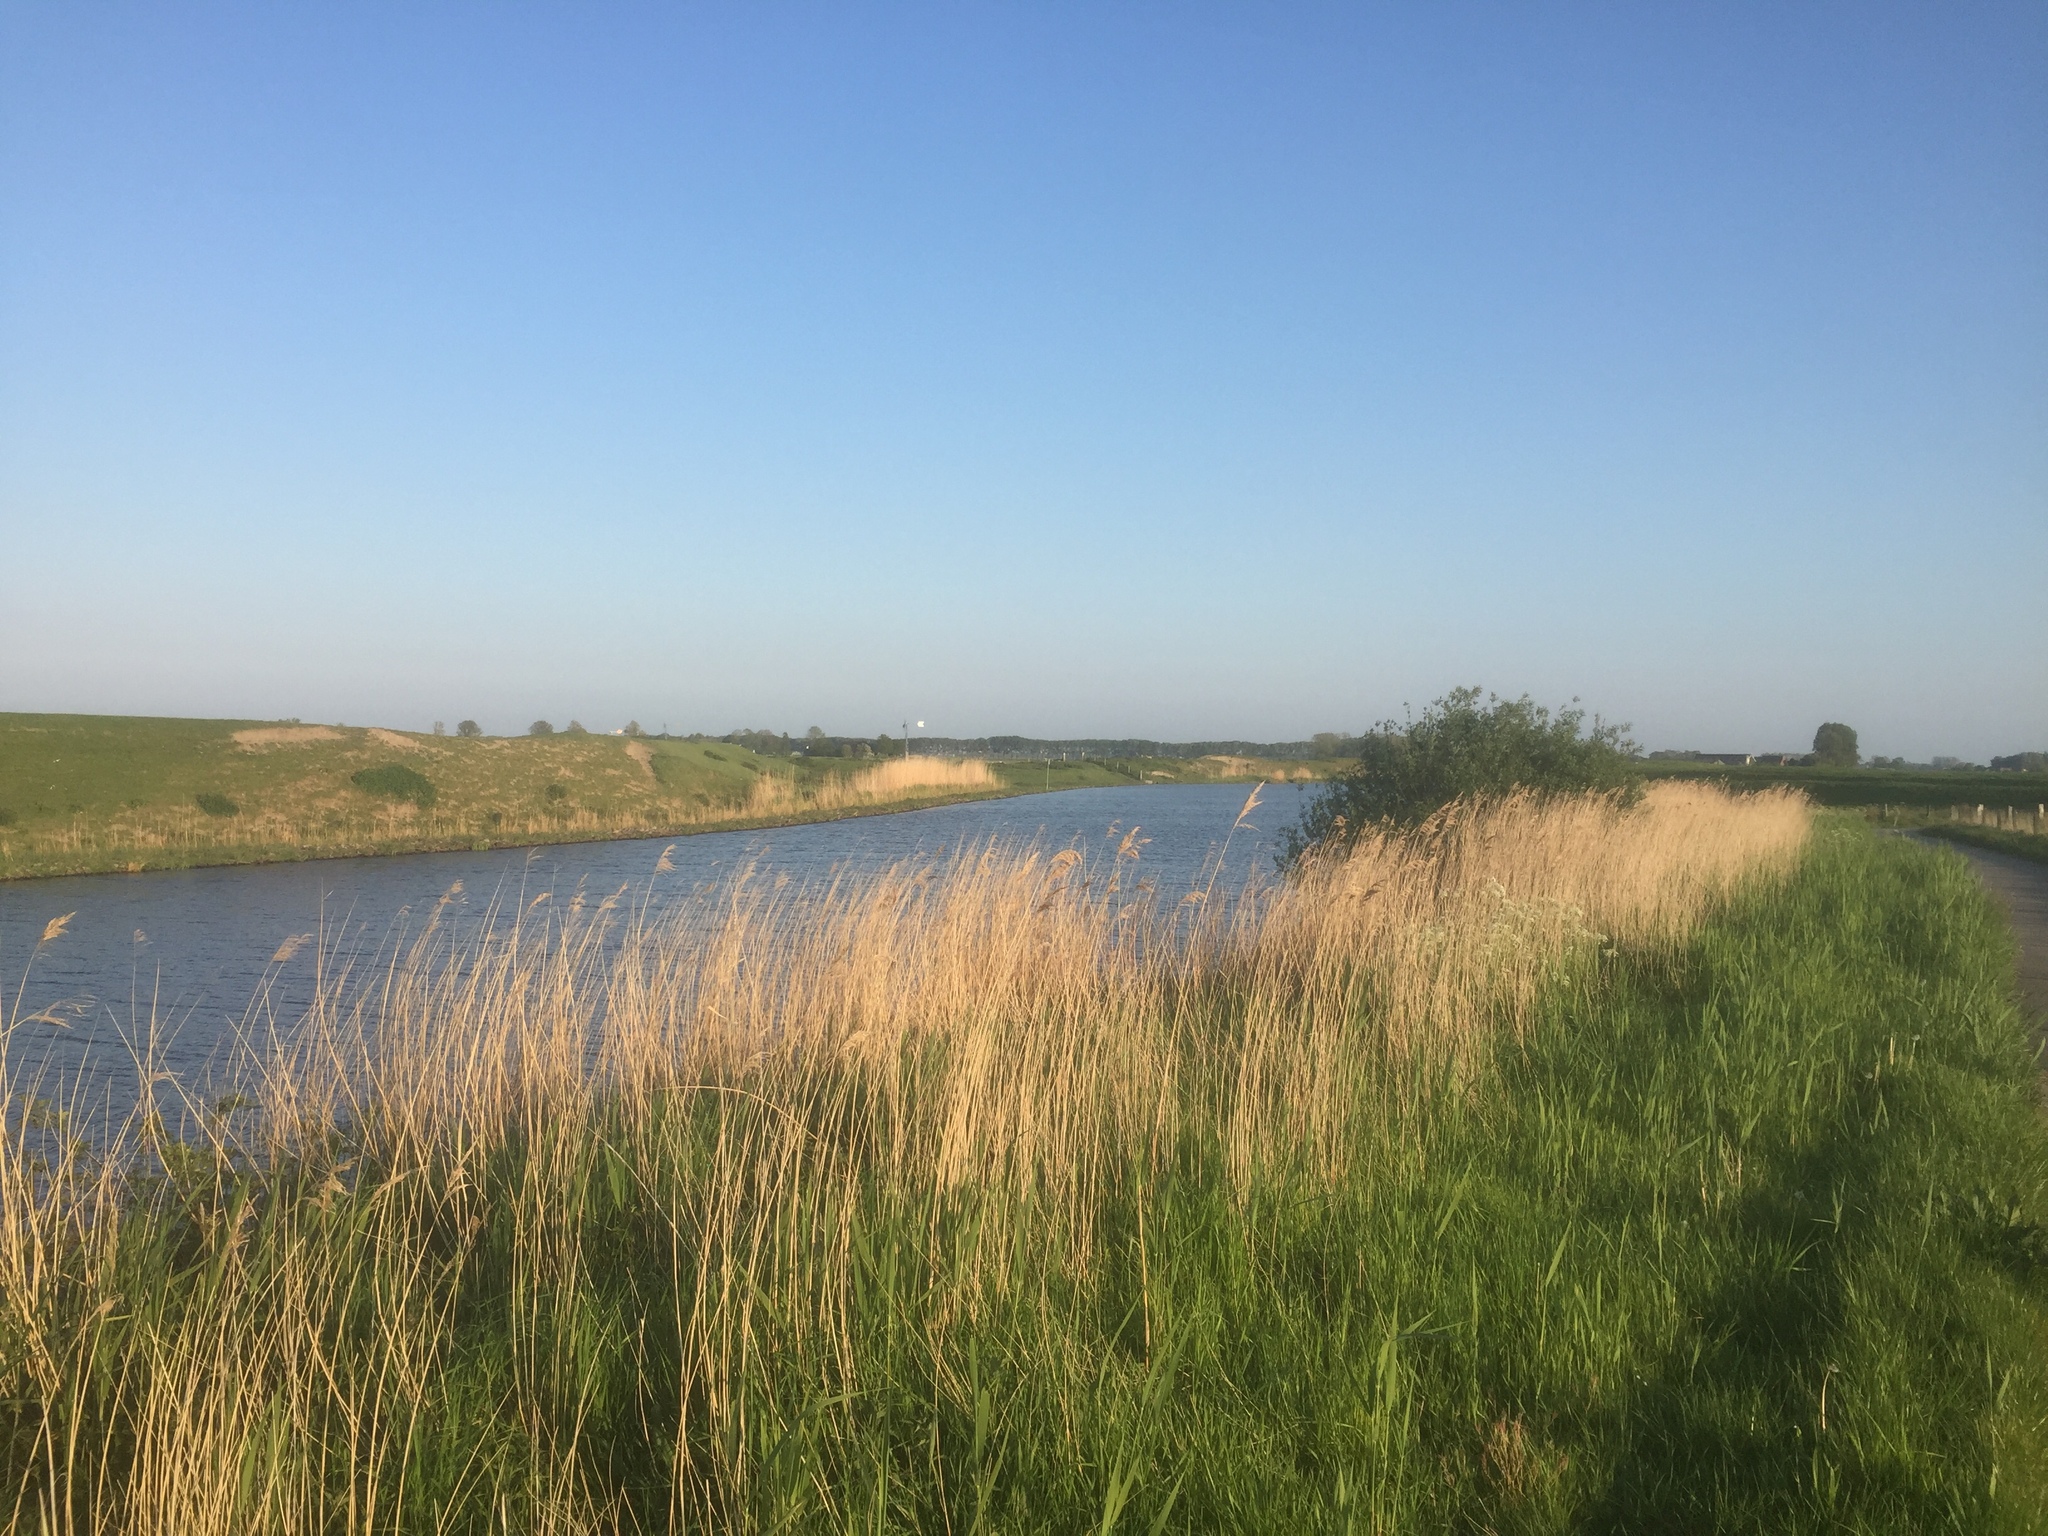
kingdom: Plantae
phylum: Tracheophyta
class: Liliopsida
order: Poales
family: Poaceae
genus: Phragmites
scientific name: Phragmites australis
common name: Common reed
